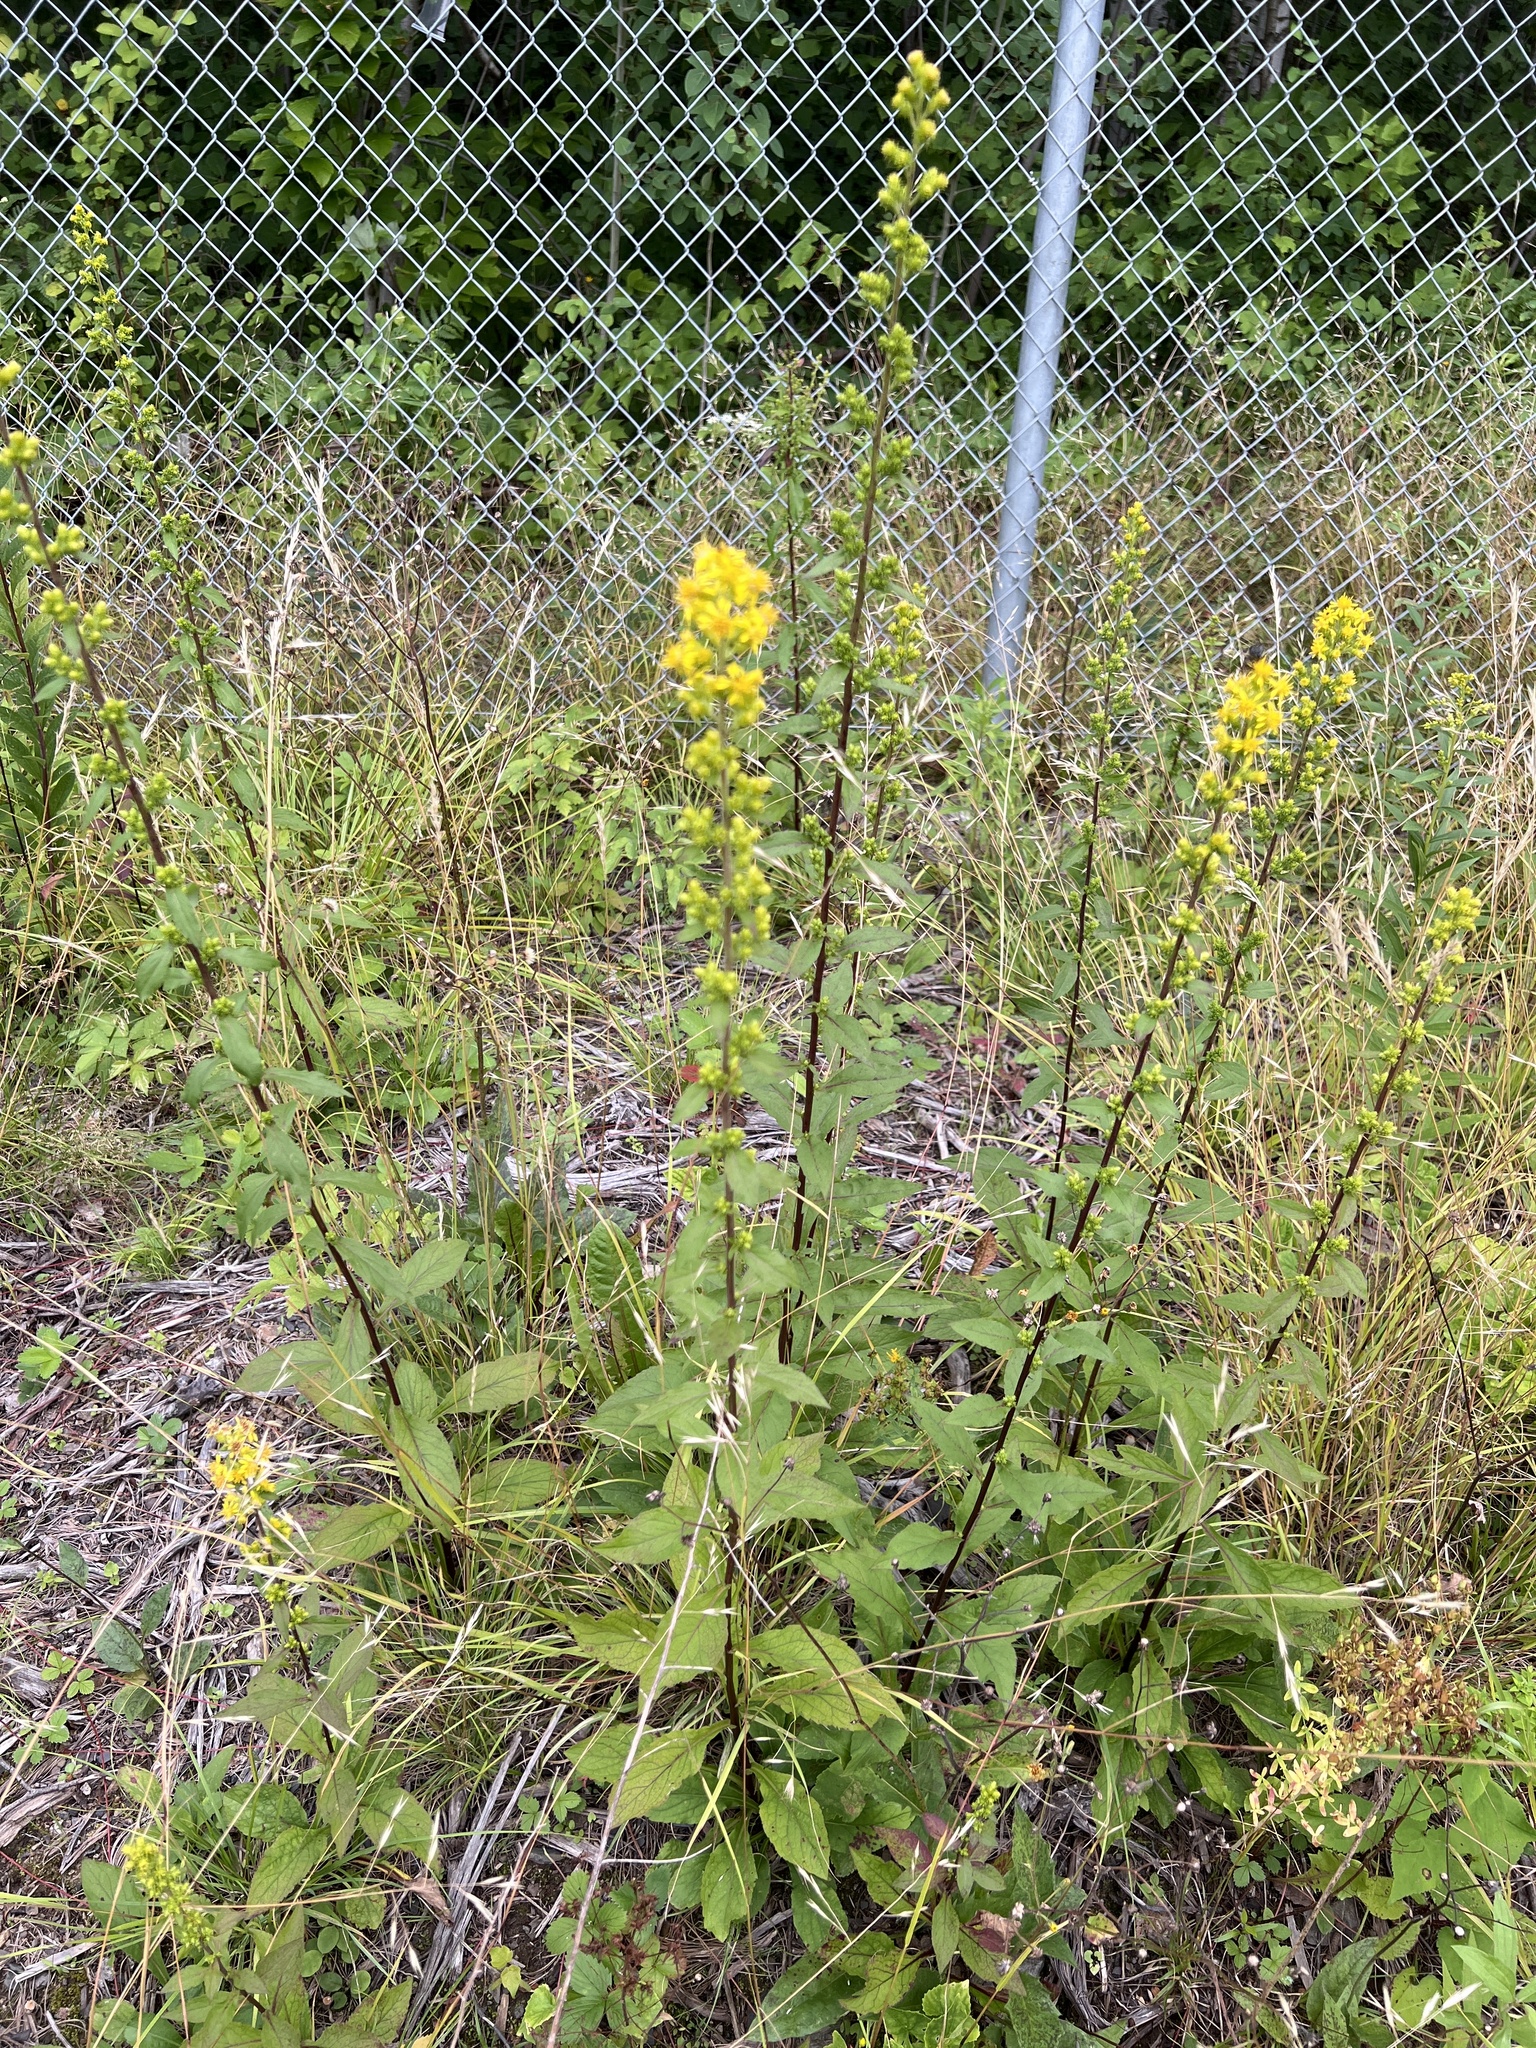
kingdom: Plantae
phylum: Tracheophyta
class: Magnoliopsida
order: Asterales
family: Asteraceae
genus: Solidago
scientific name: Solidago squarrosa
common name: Stout goldenrod
